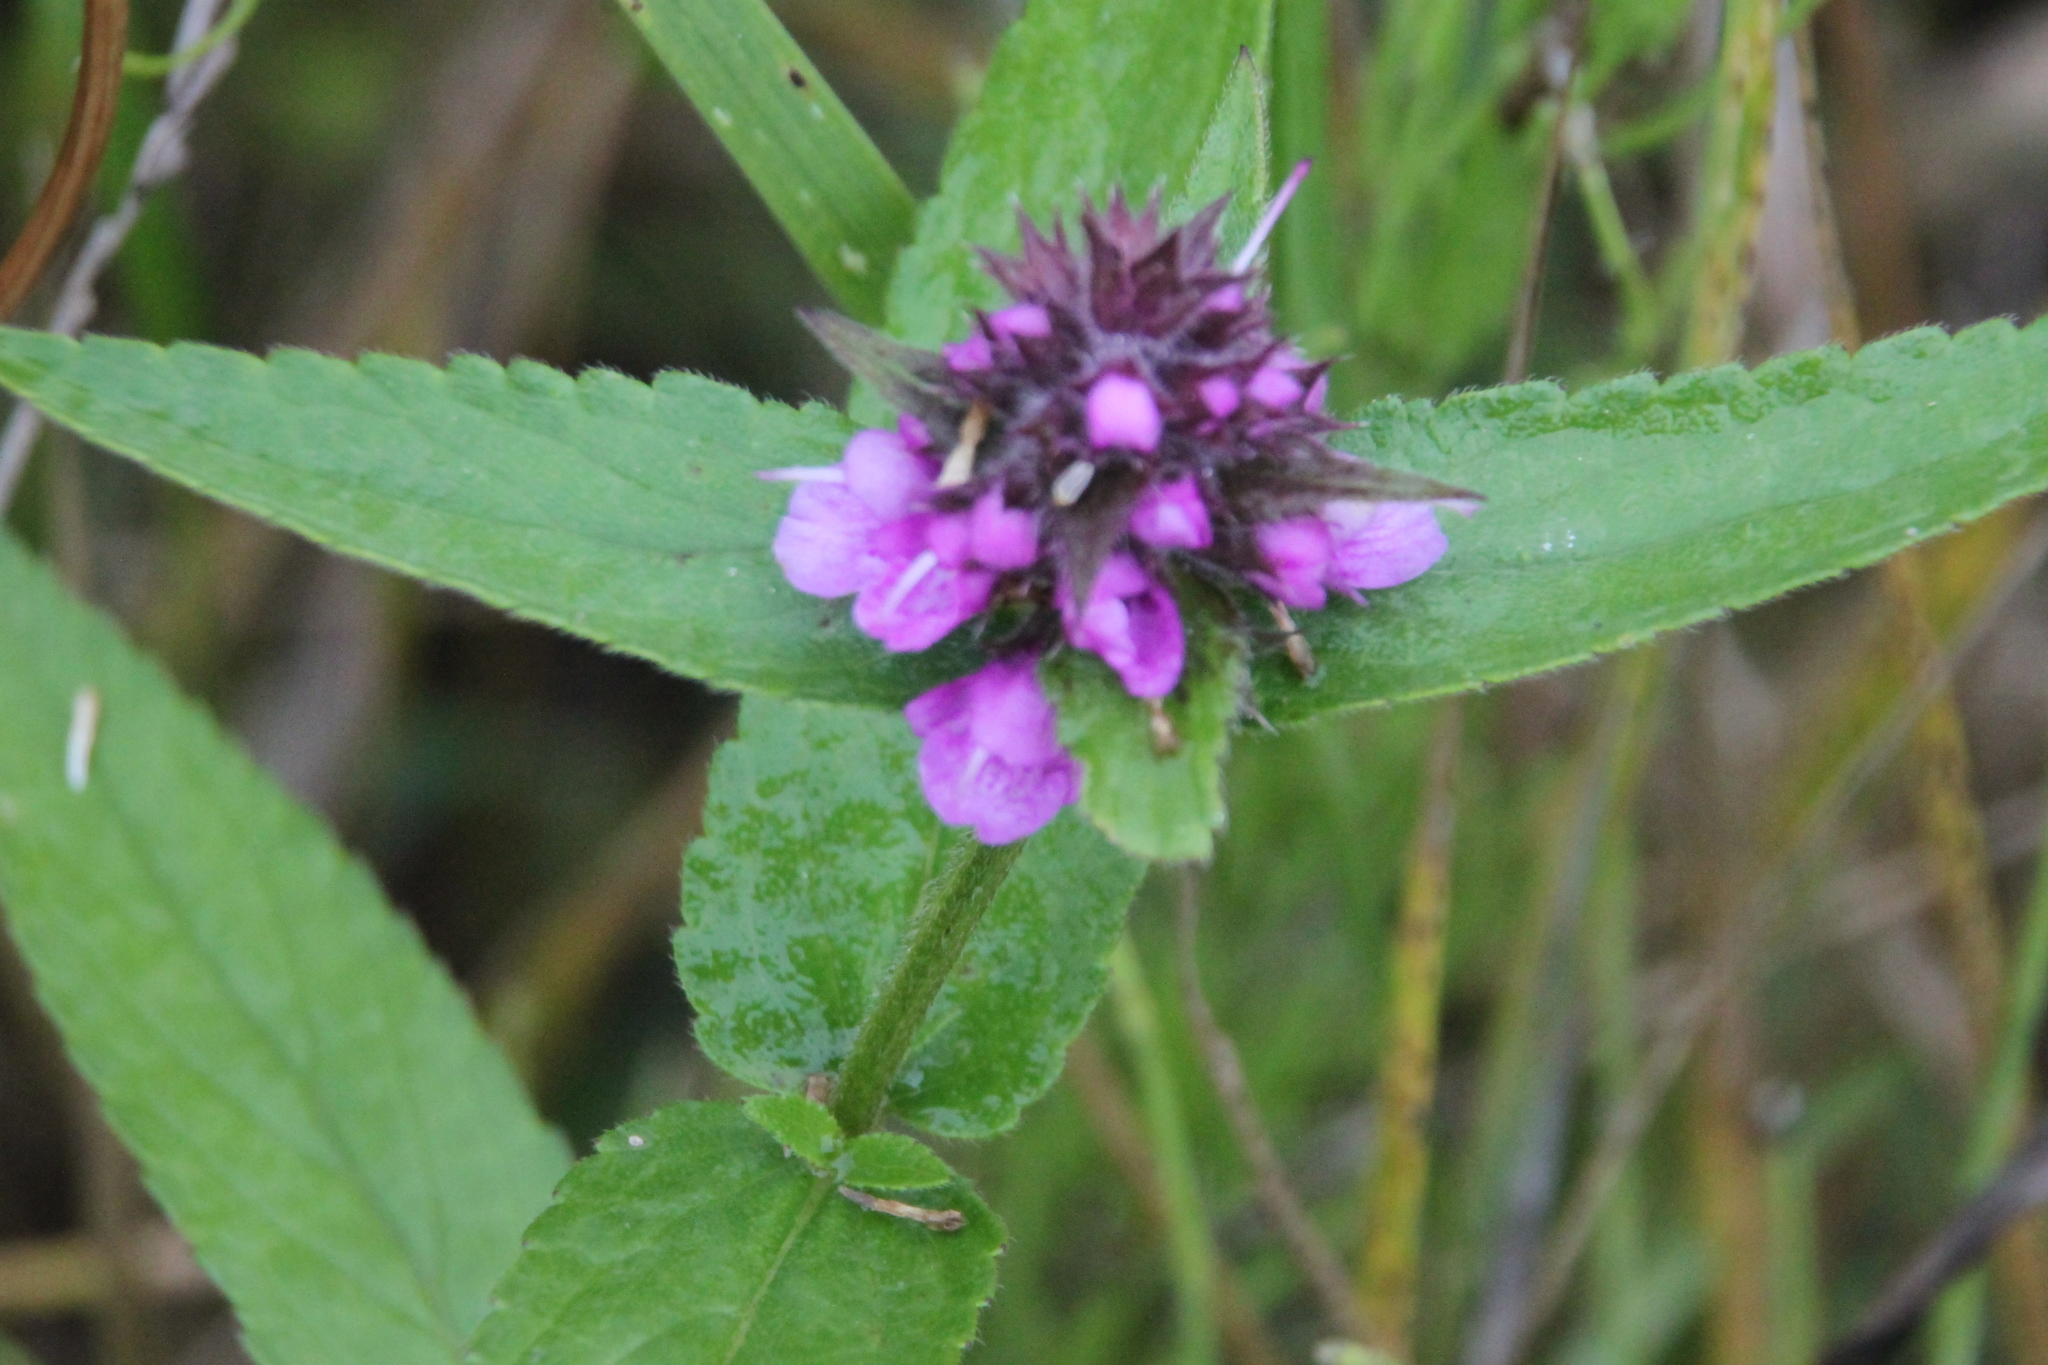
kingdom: Plantae
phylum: Tracheophyta
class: Magnoliopsida
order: Lamiales
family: Lamiaceae
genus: Stachys
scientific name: Stachys palustris
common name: Marsh woundwort
